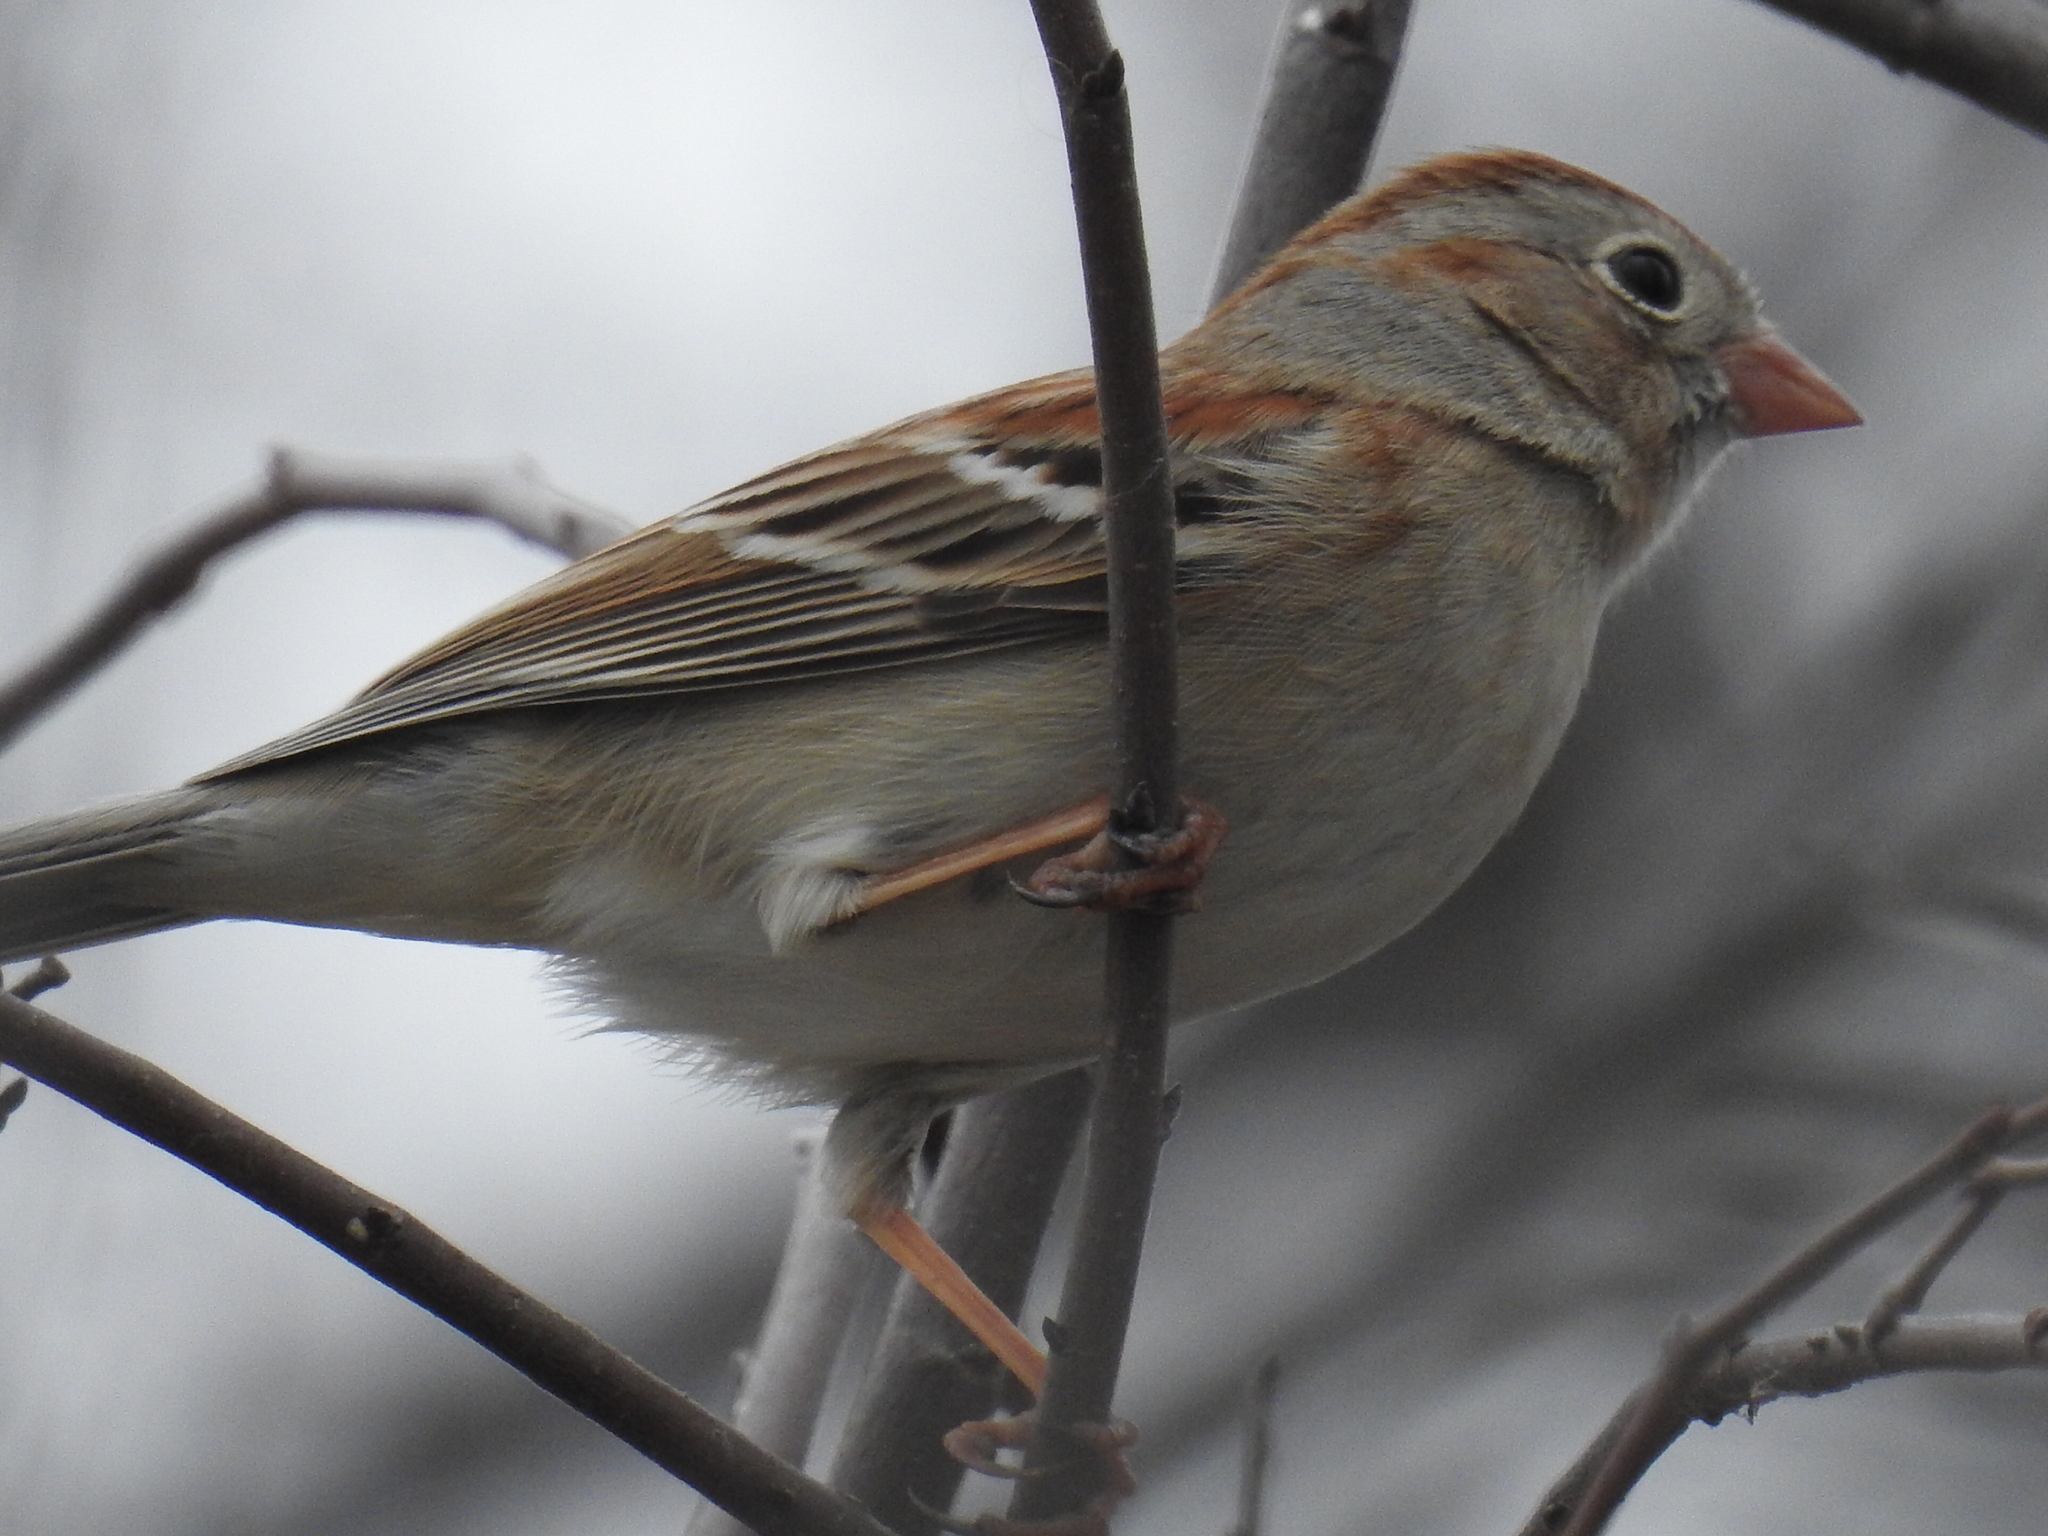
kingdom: Animalia
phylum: Chordata
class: Aves
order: Passeriformes
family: Passerellidae
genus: Spizella
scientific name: Spizella pusilla
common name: Field sparrow
